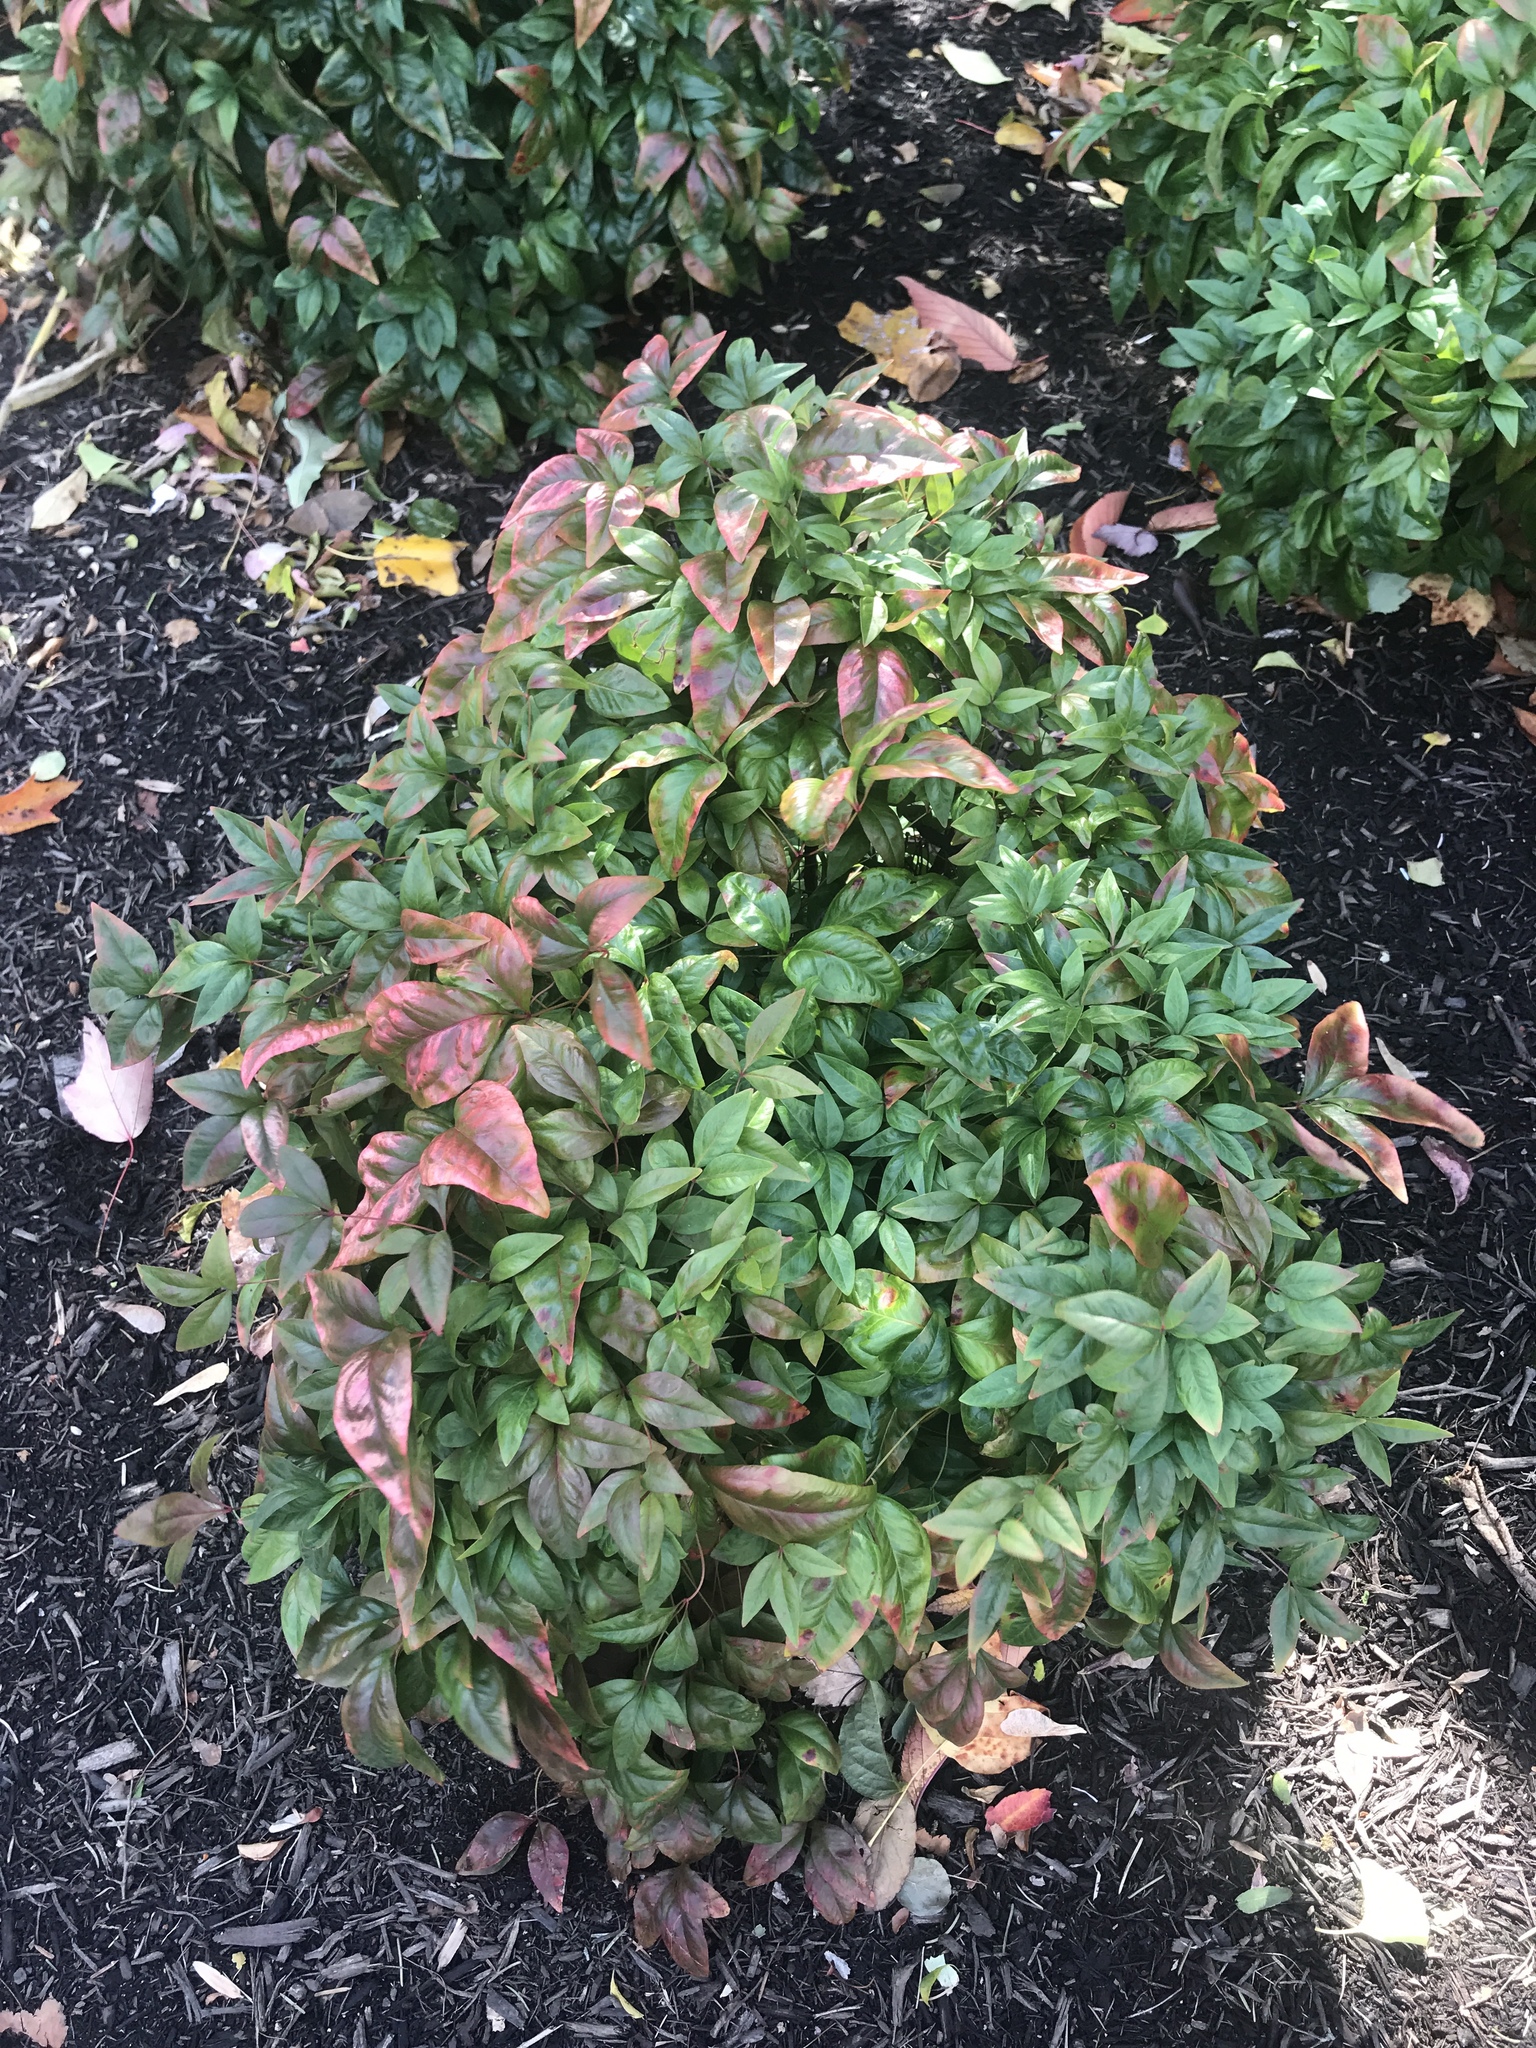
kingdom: Plantae
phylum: Tracheophyta
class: Magnoliopsida
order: Ranunculales
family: Berberidaceae
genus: Nandina
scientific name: Nandina domestica
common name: Sacred bamboo
